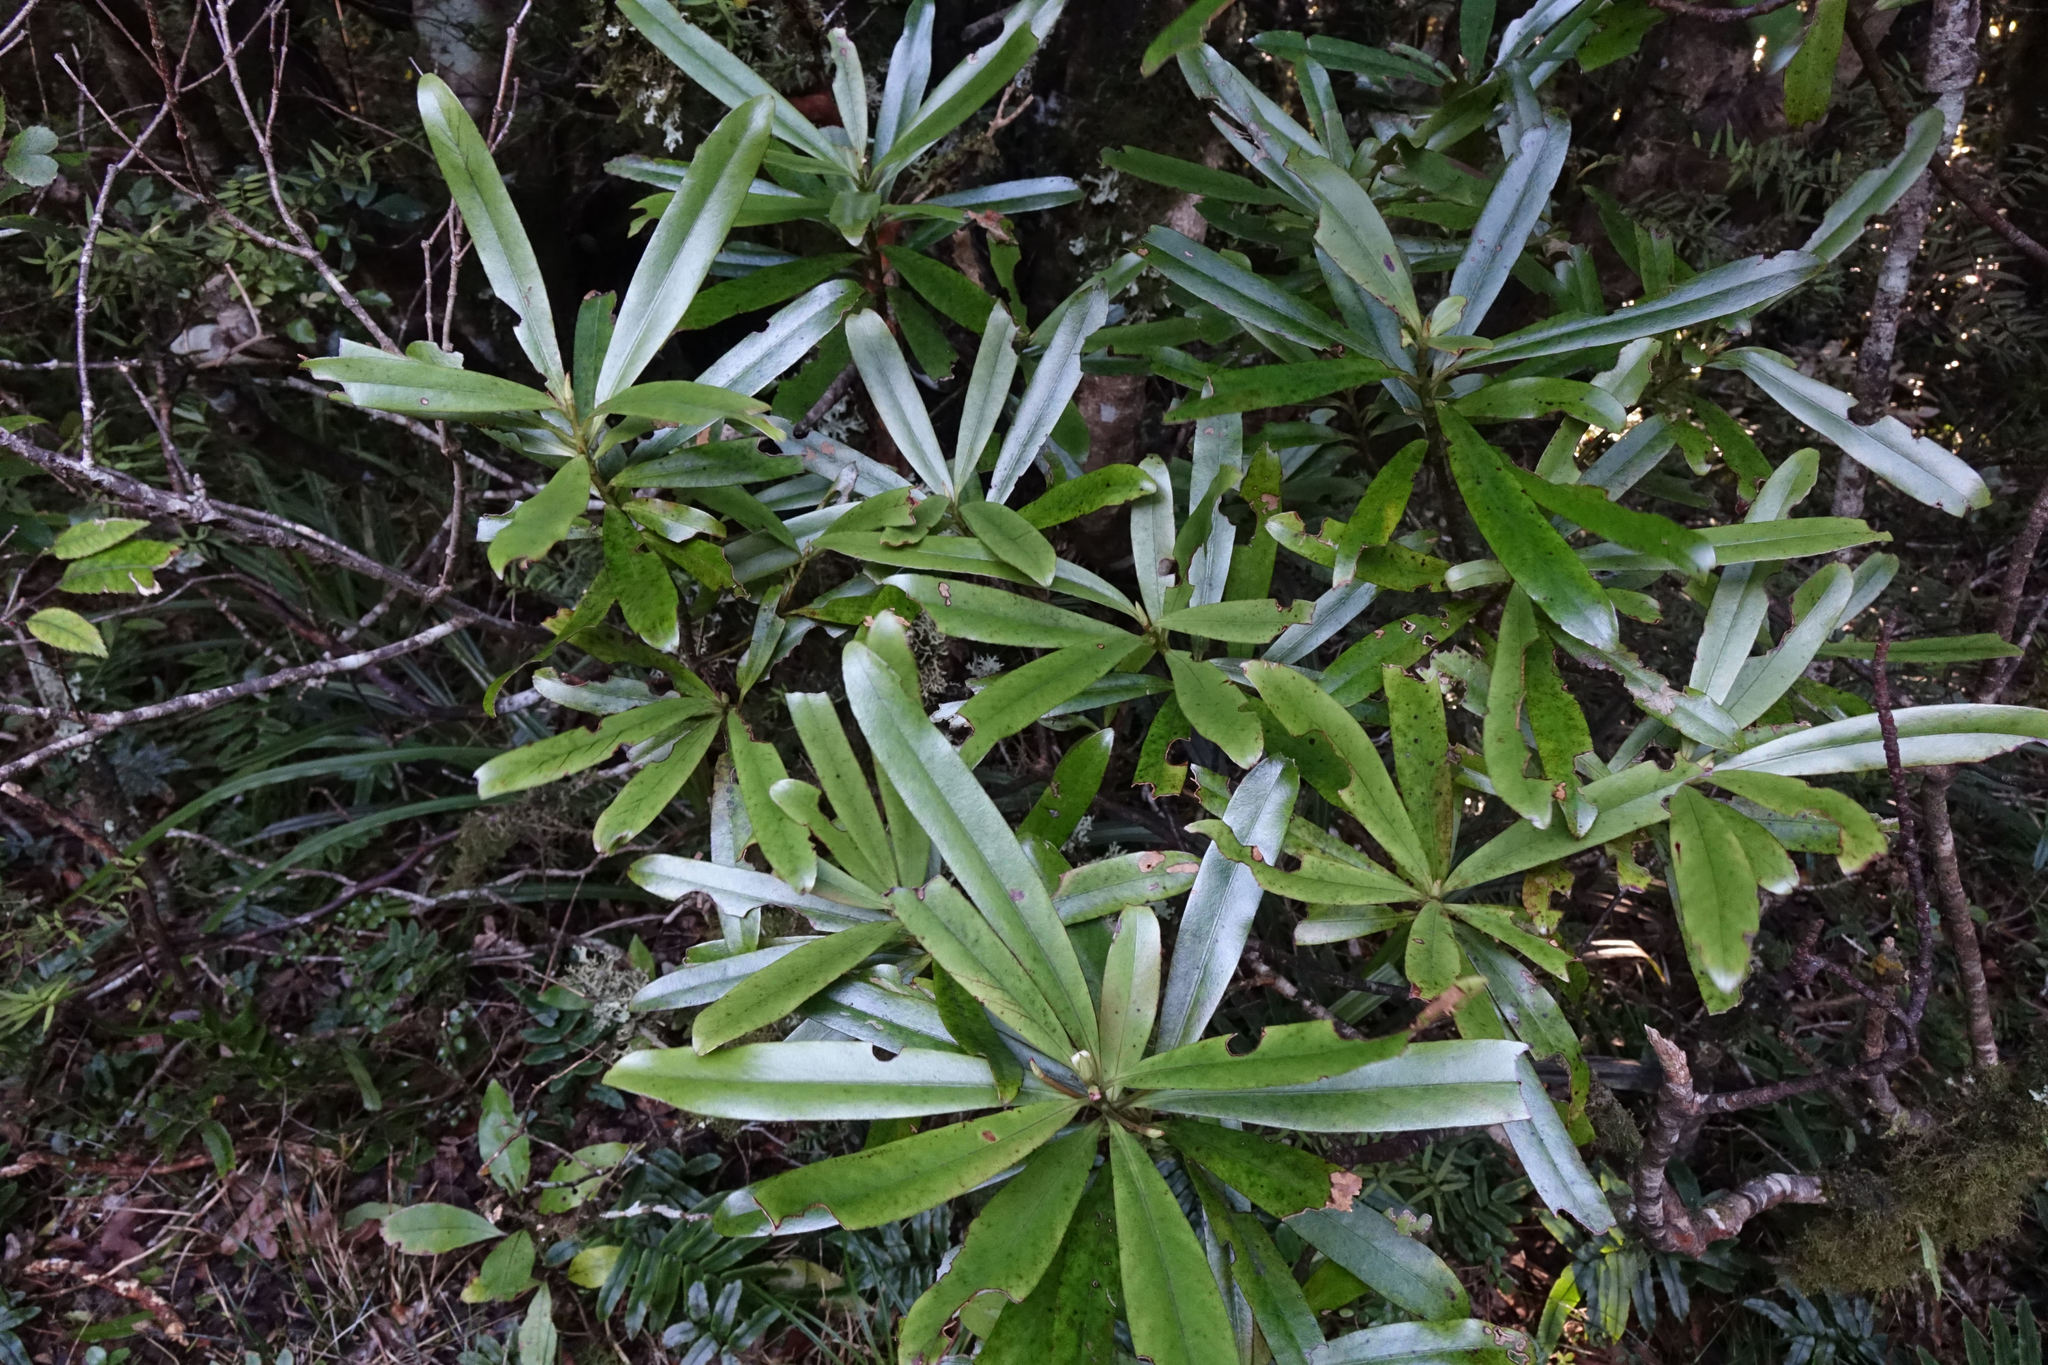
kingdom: Plantae
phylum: Tracheophyta
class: Magnoliopsida
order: Ericales
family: Primulaceae
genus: Myrsine
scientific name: Myrsine salicina
